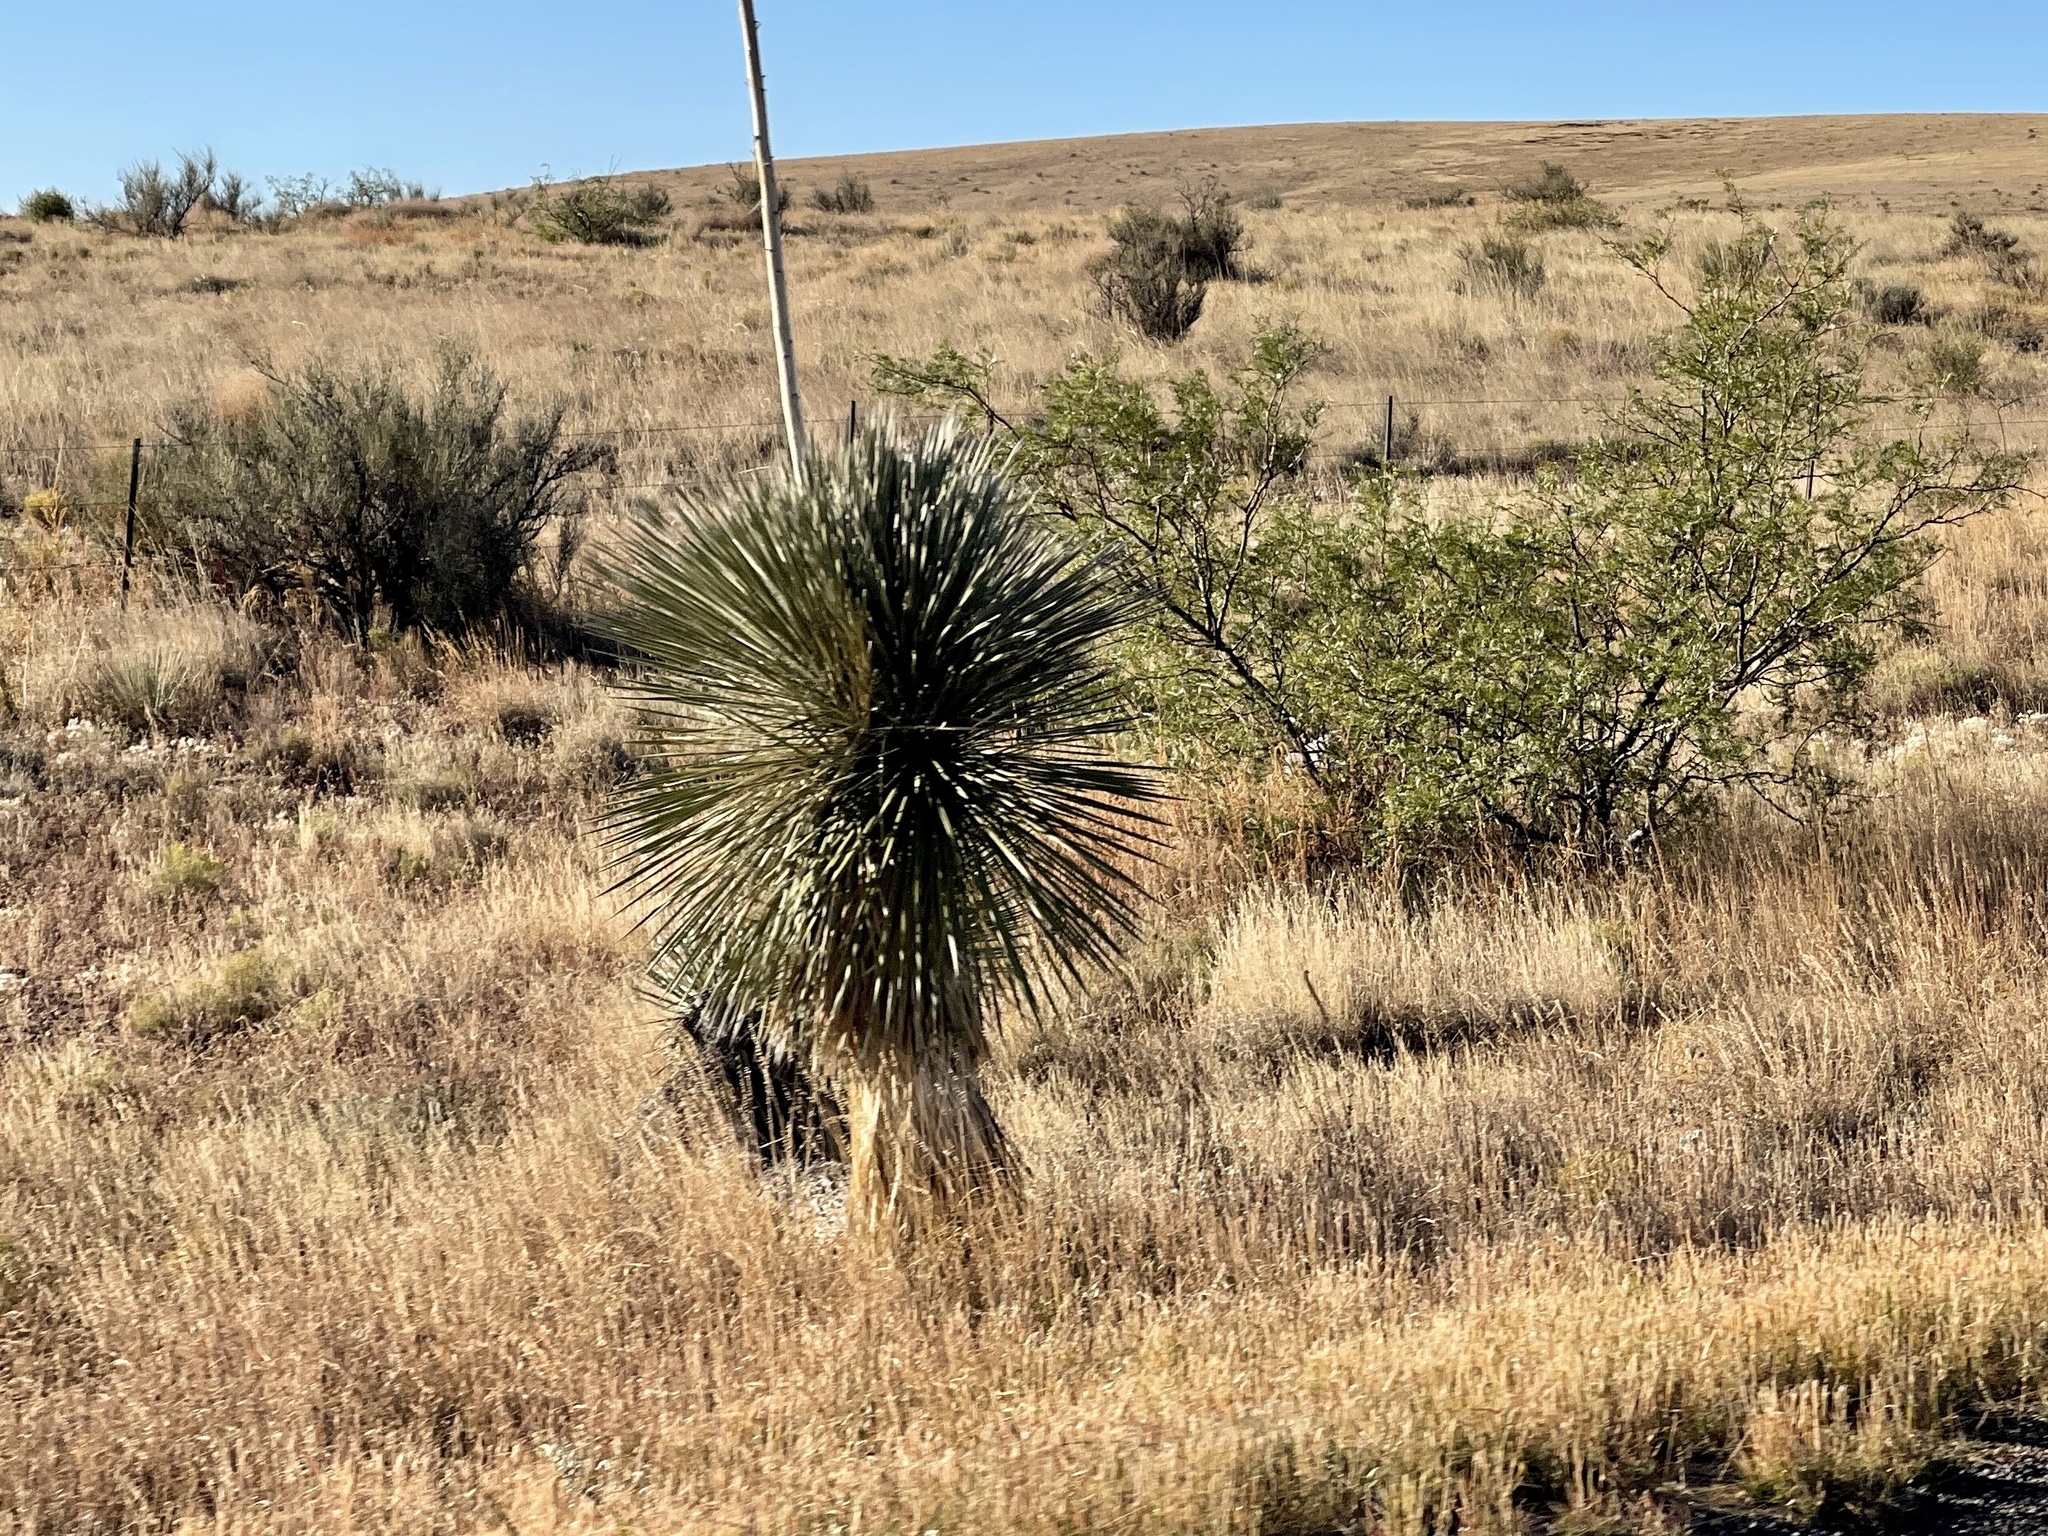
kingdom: Plantae
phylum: Tracheophyta
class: Liliopsida
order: Asparagales
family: Asparagaceae
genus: Yucca
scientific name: Yucca elata
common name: Palmella
